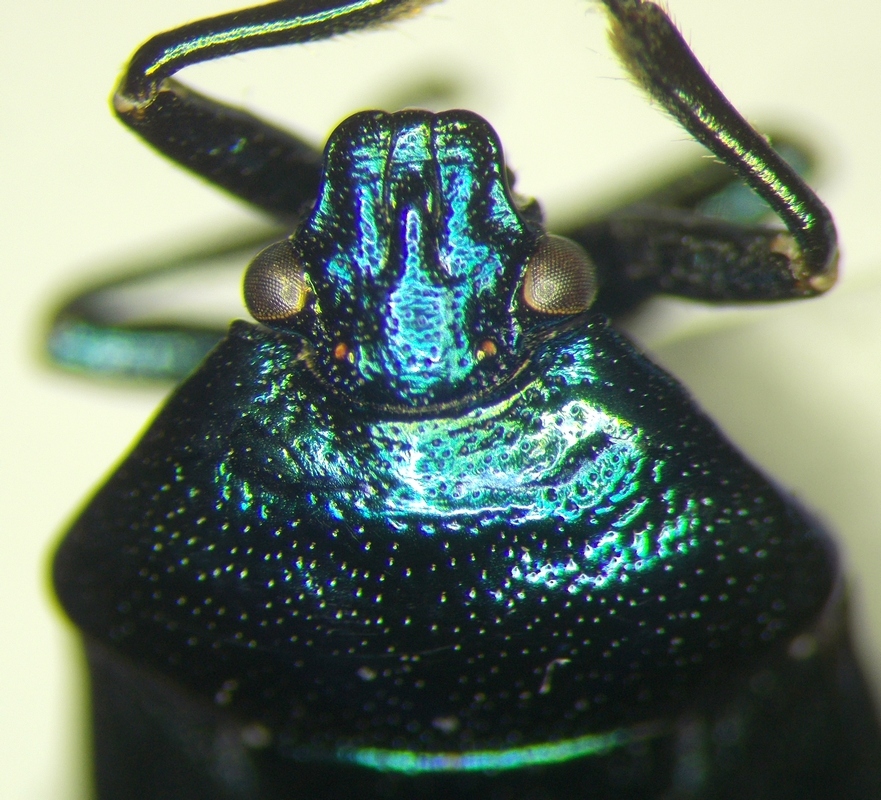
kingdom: Animalia
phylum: Arthropoda
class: Insecta
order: Hemiptera
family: Pentatomidae
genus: Zicrona
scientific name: Zicrona caerulea
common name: Blue shieldbug
